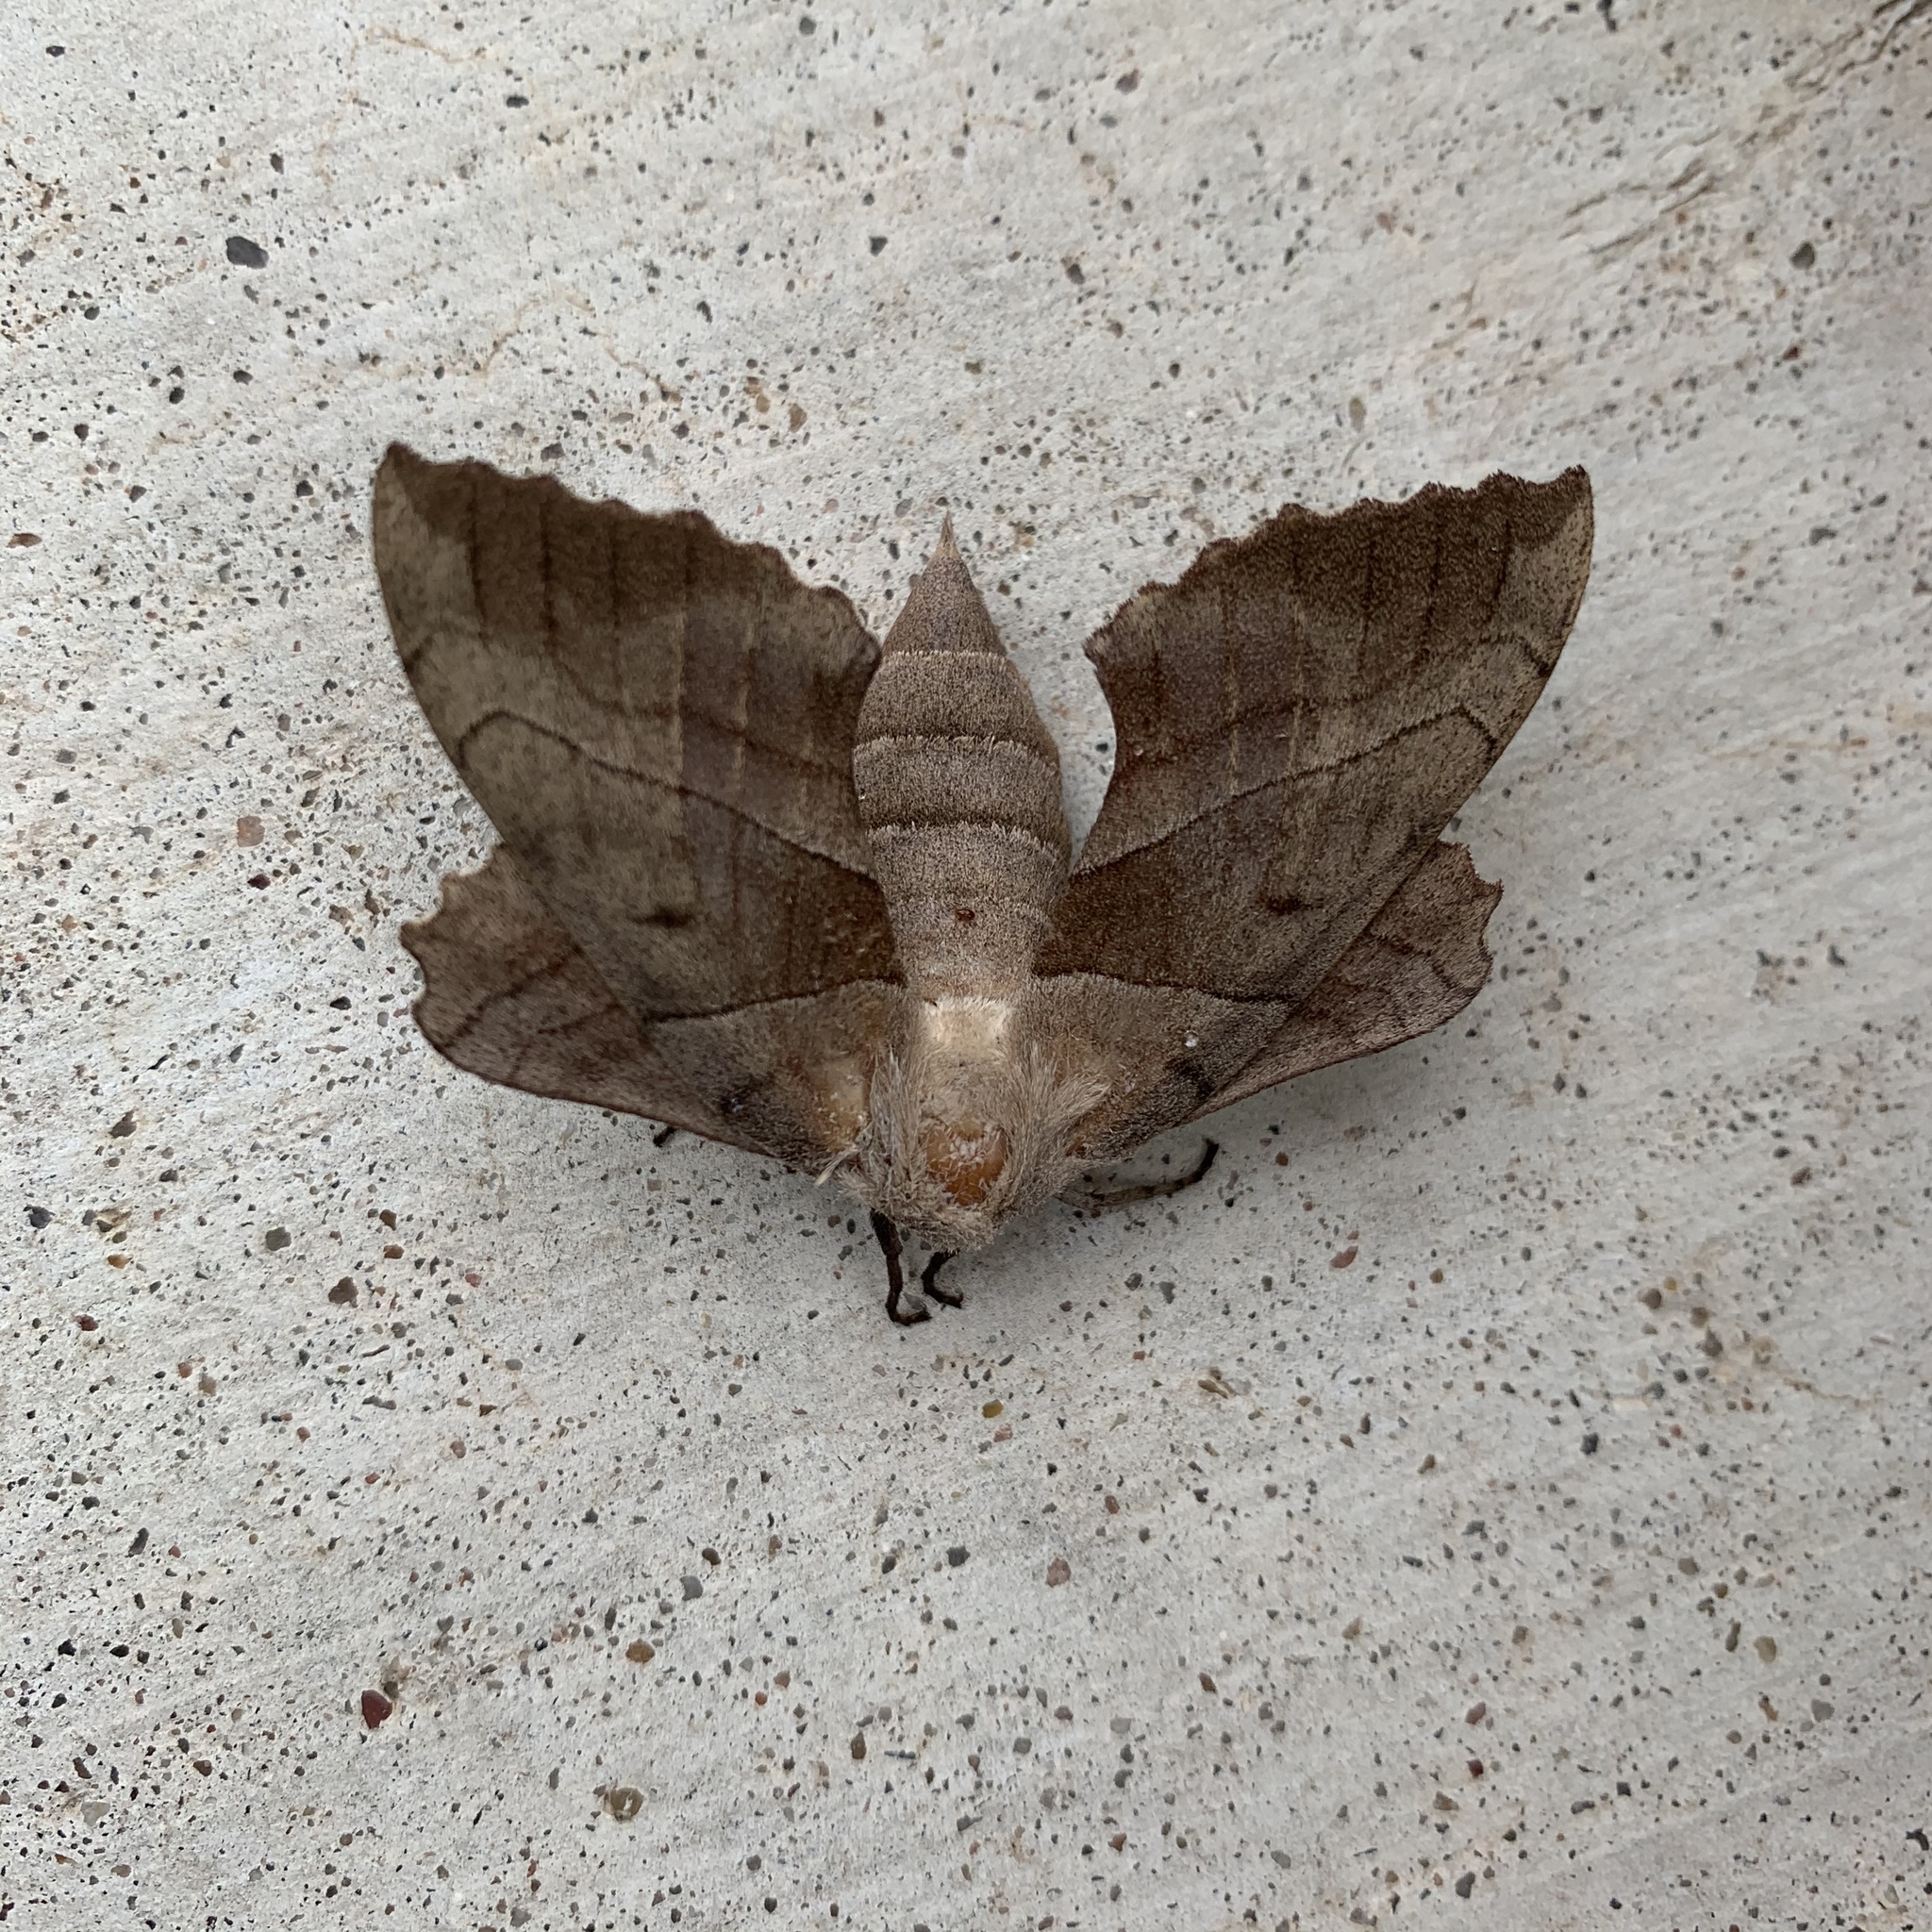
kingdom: Animalia
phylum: Arthropoda
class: Insecta
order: Lepidoptera
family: Sphingidae
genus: Amorpha
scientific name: Amorpha juglandis
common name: Walnut sphinx
